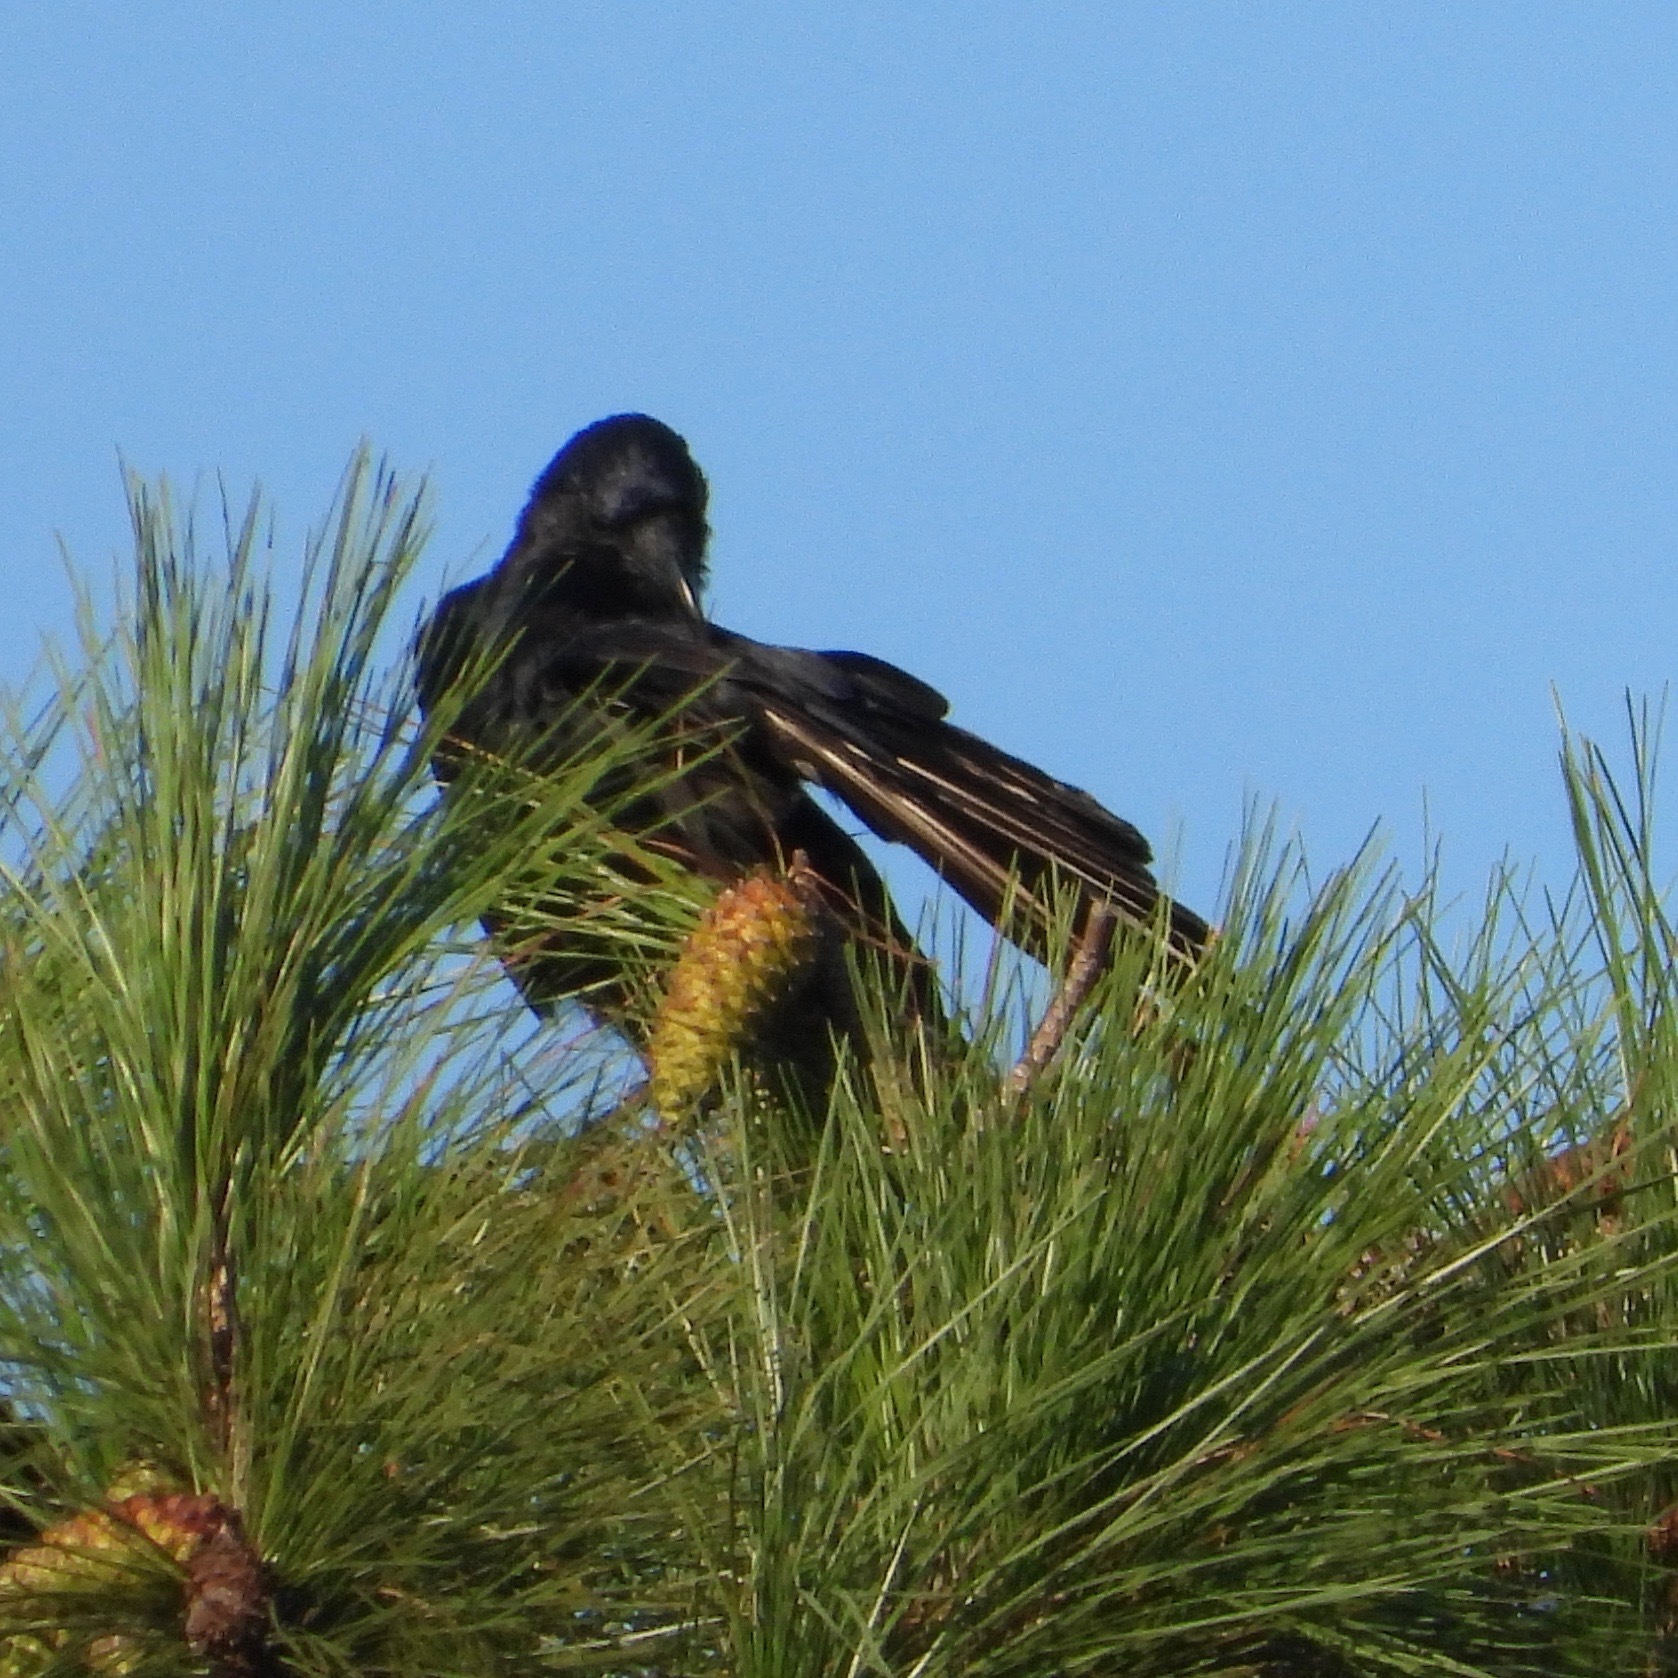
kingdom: Animalia
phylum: Chordata
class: Aves
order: Passeriformes
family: Corvidae
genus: Corvus
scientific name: Corvus ossifragus
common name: Fish crow
